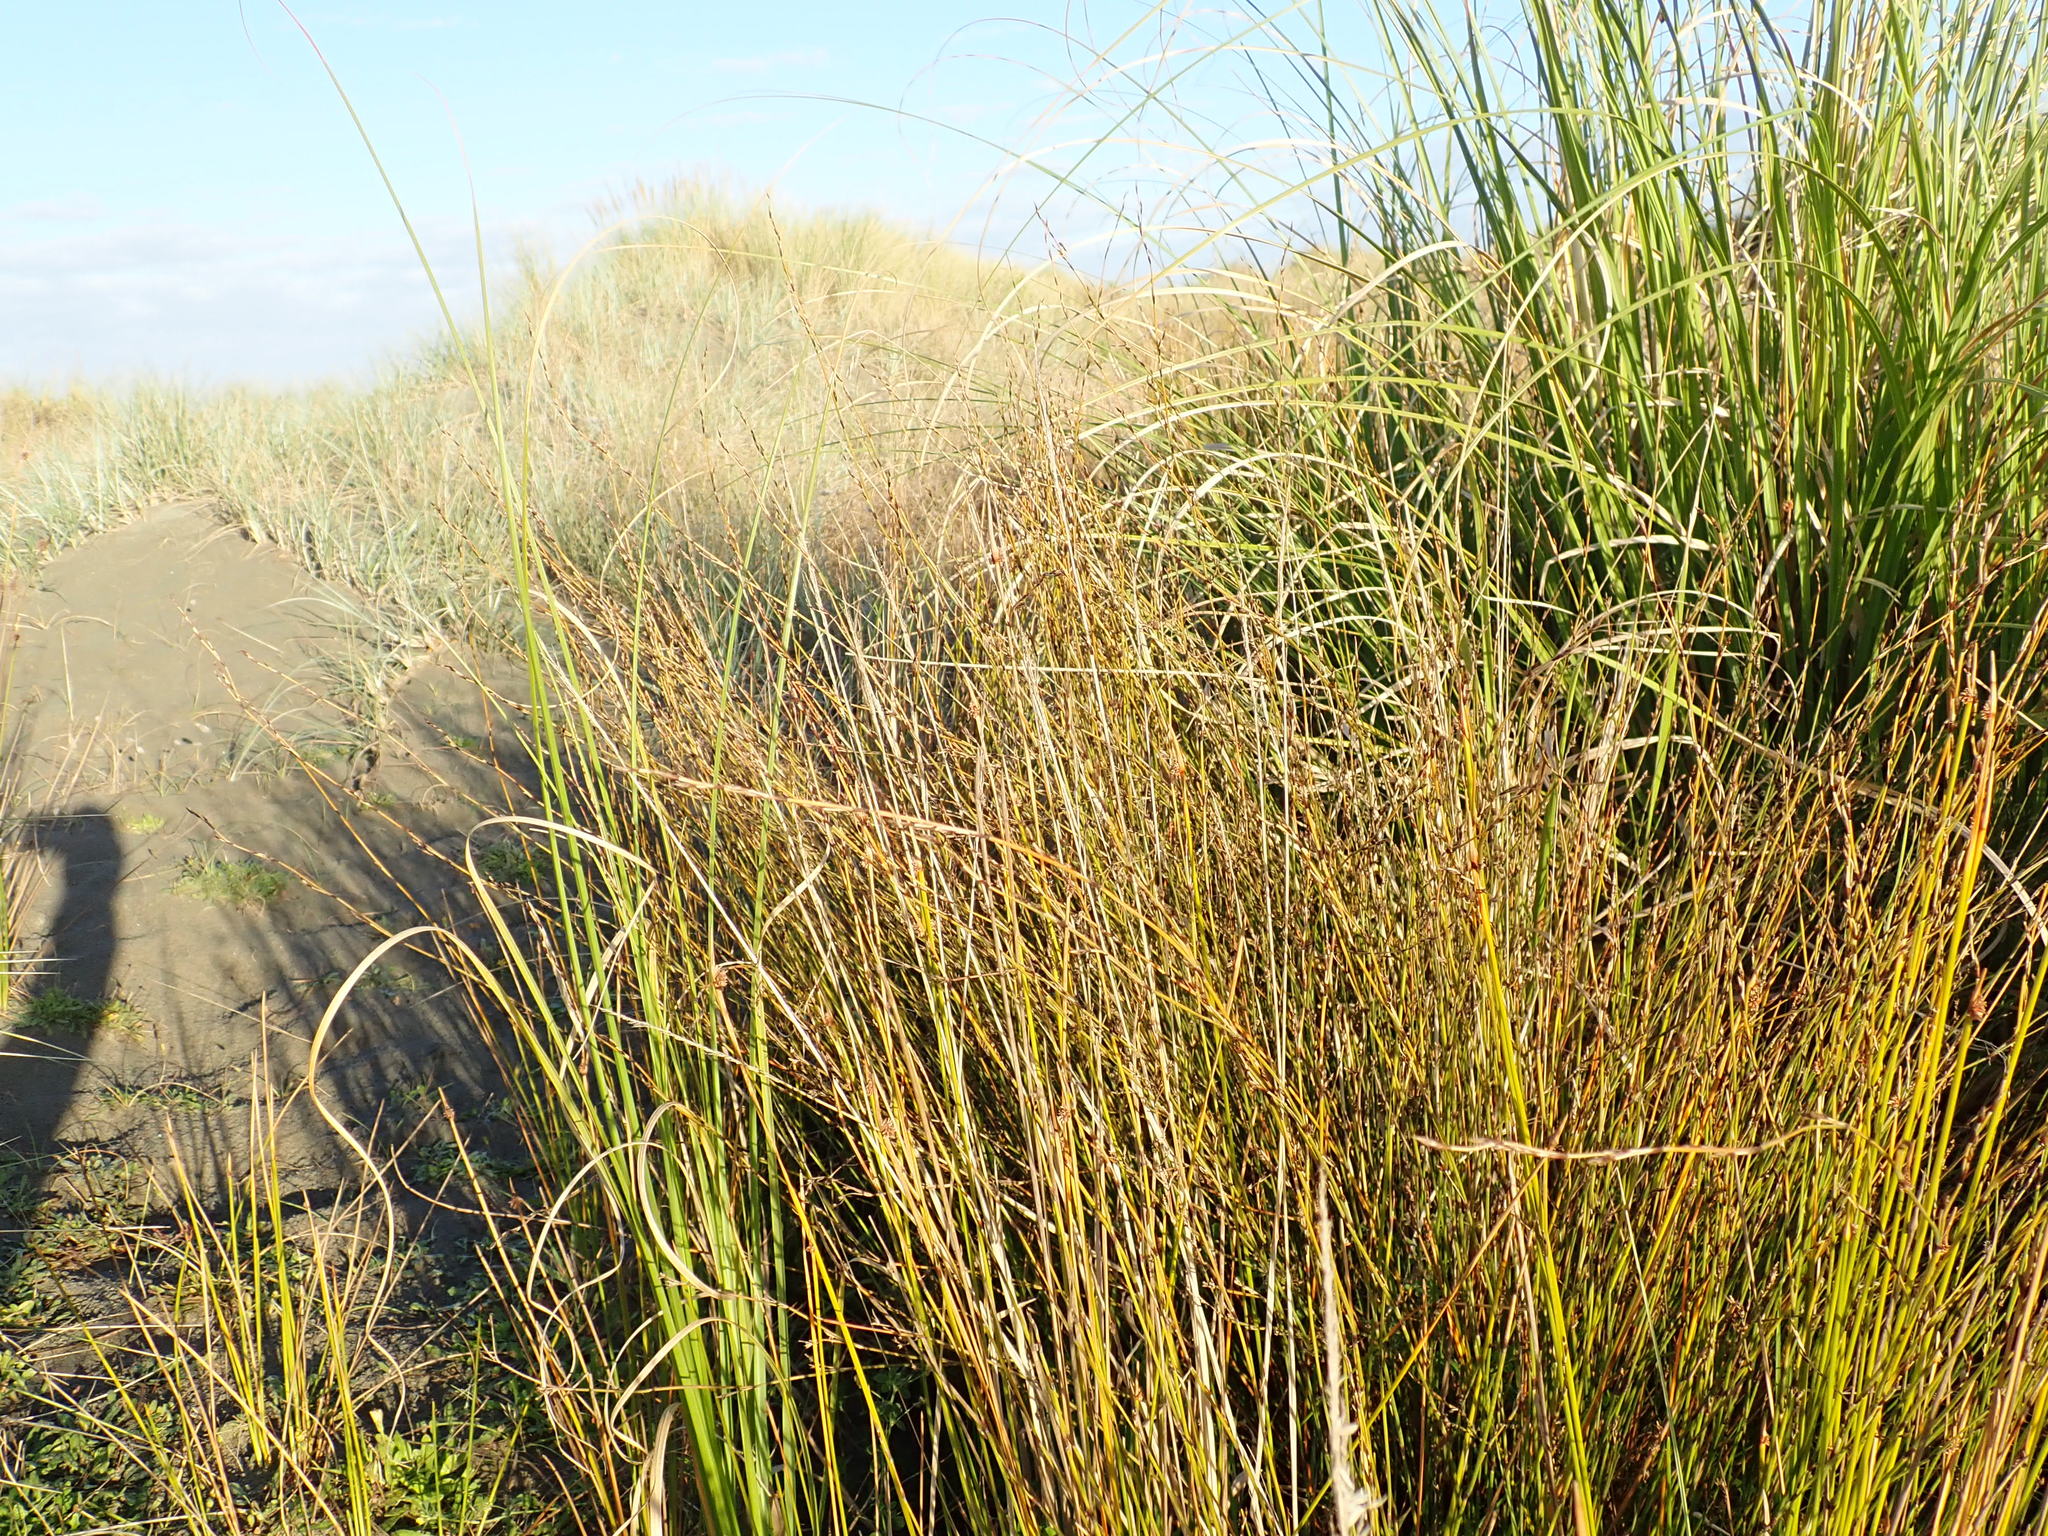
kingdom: Plantae
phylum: Tracheophyta
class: Liliopsida
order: Poales
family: Restionaceae
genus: Apodasmia
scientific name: Apodasmia similis
